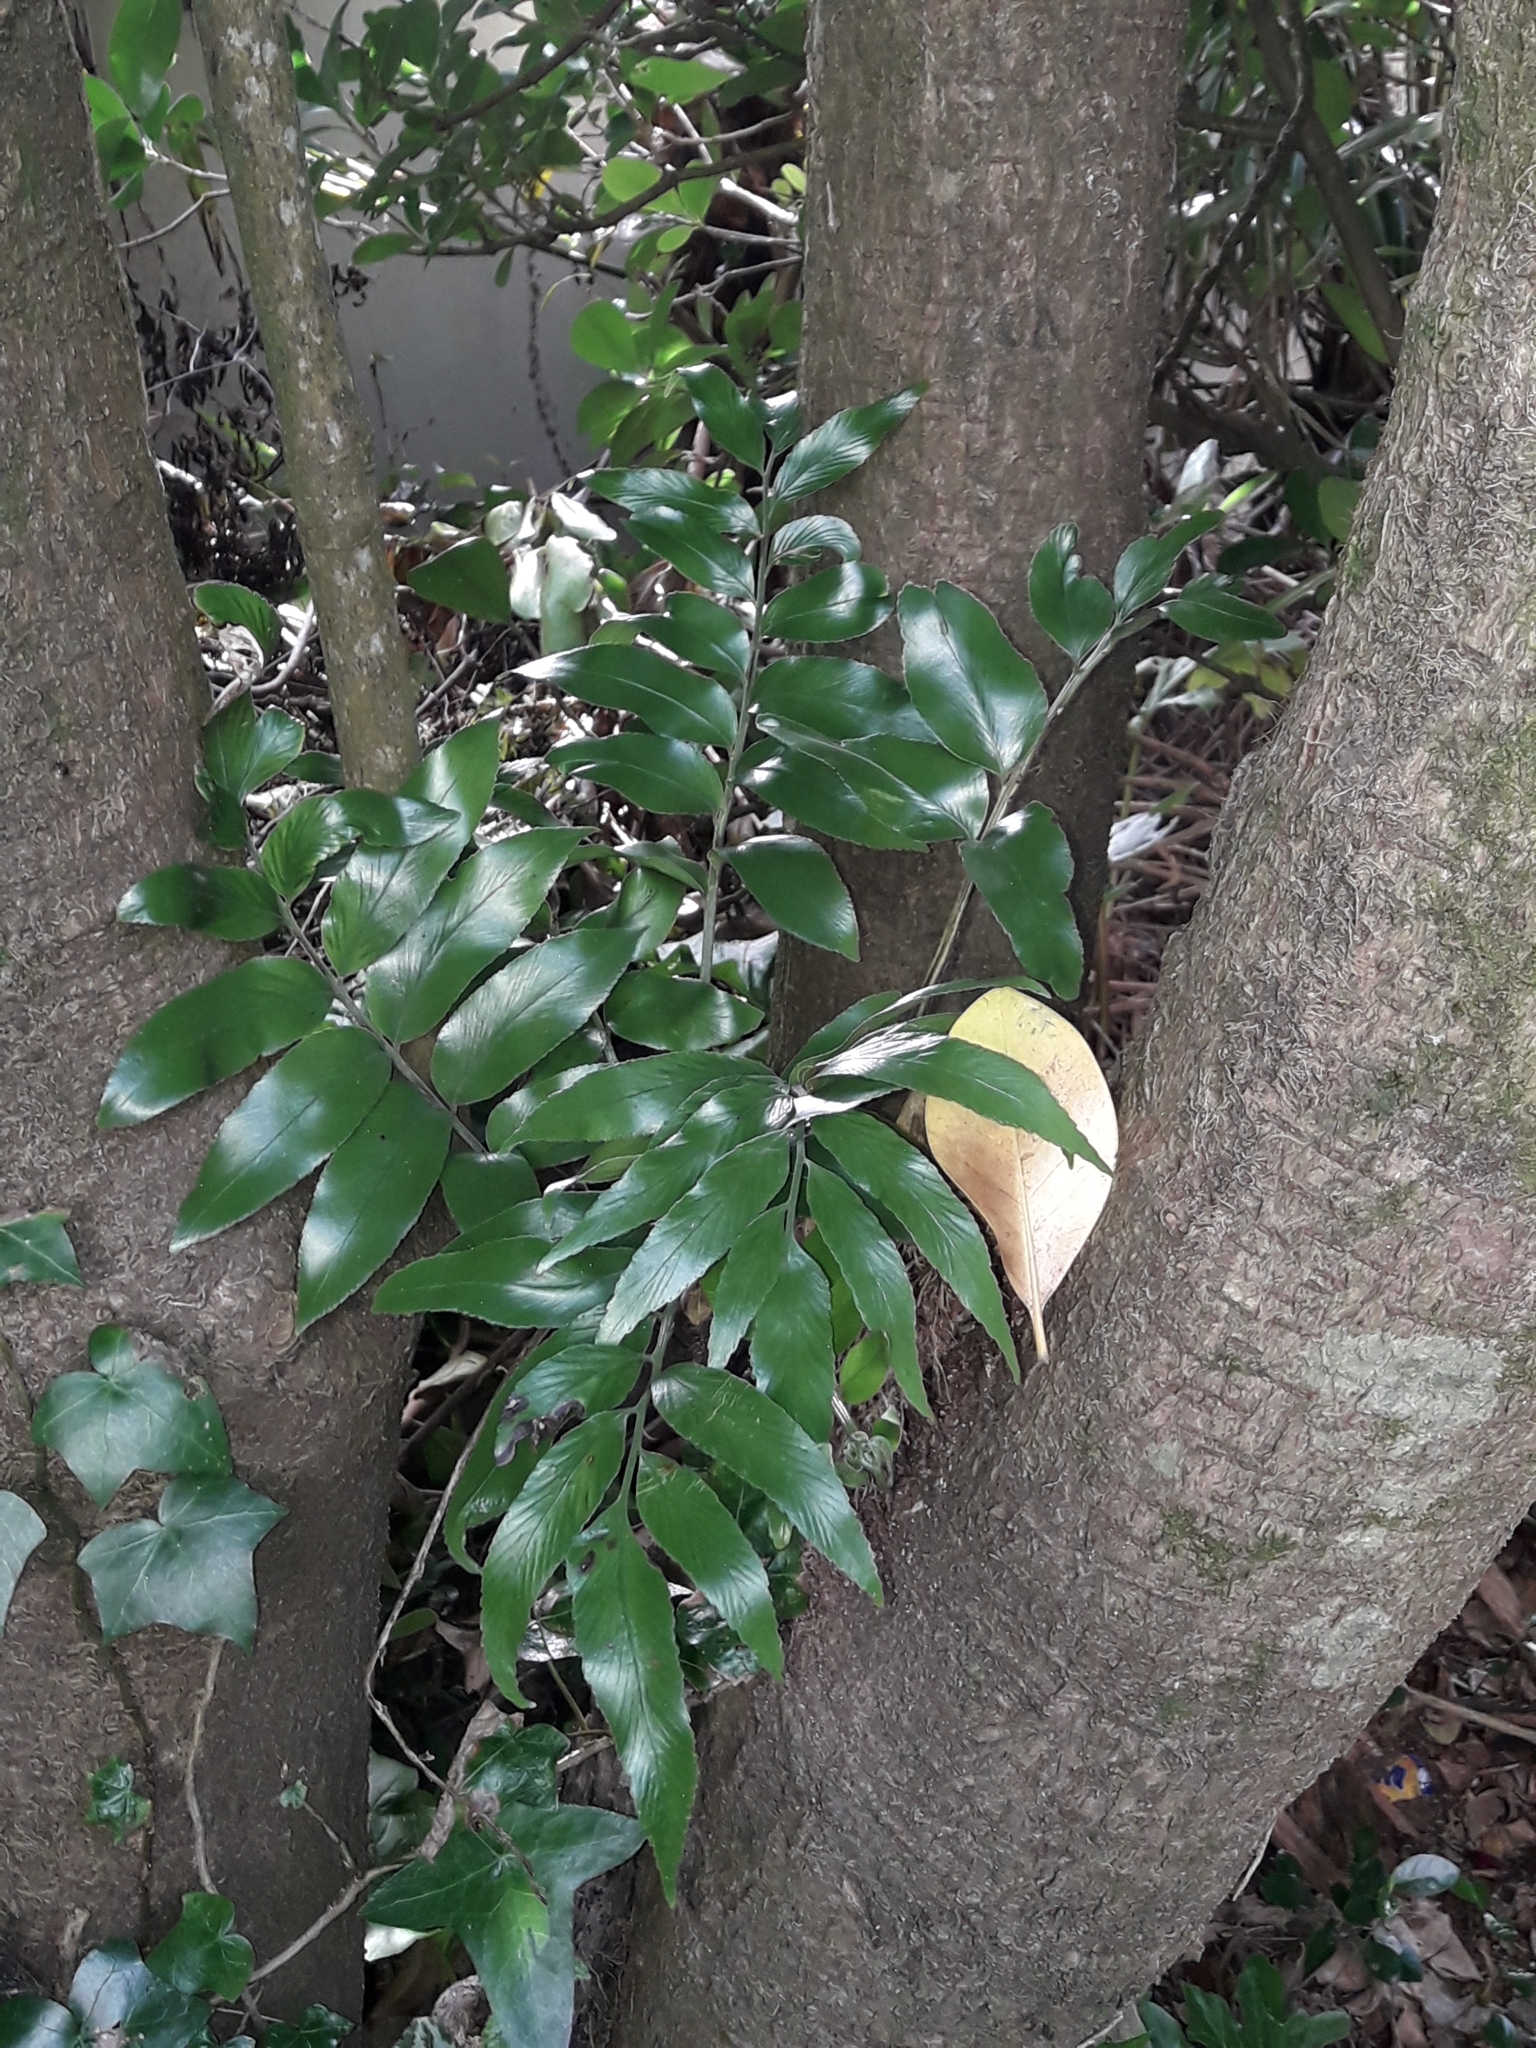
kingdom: Plantae
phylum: Tracheophyta
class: Polypodiopsida
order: Polypodiales
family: Aspleniaceae
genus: Asplenium
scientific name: Asplenium oblongifolium
